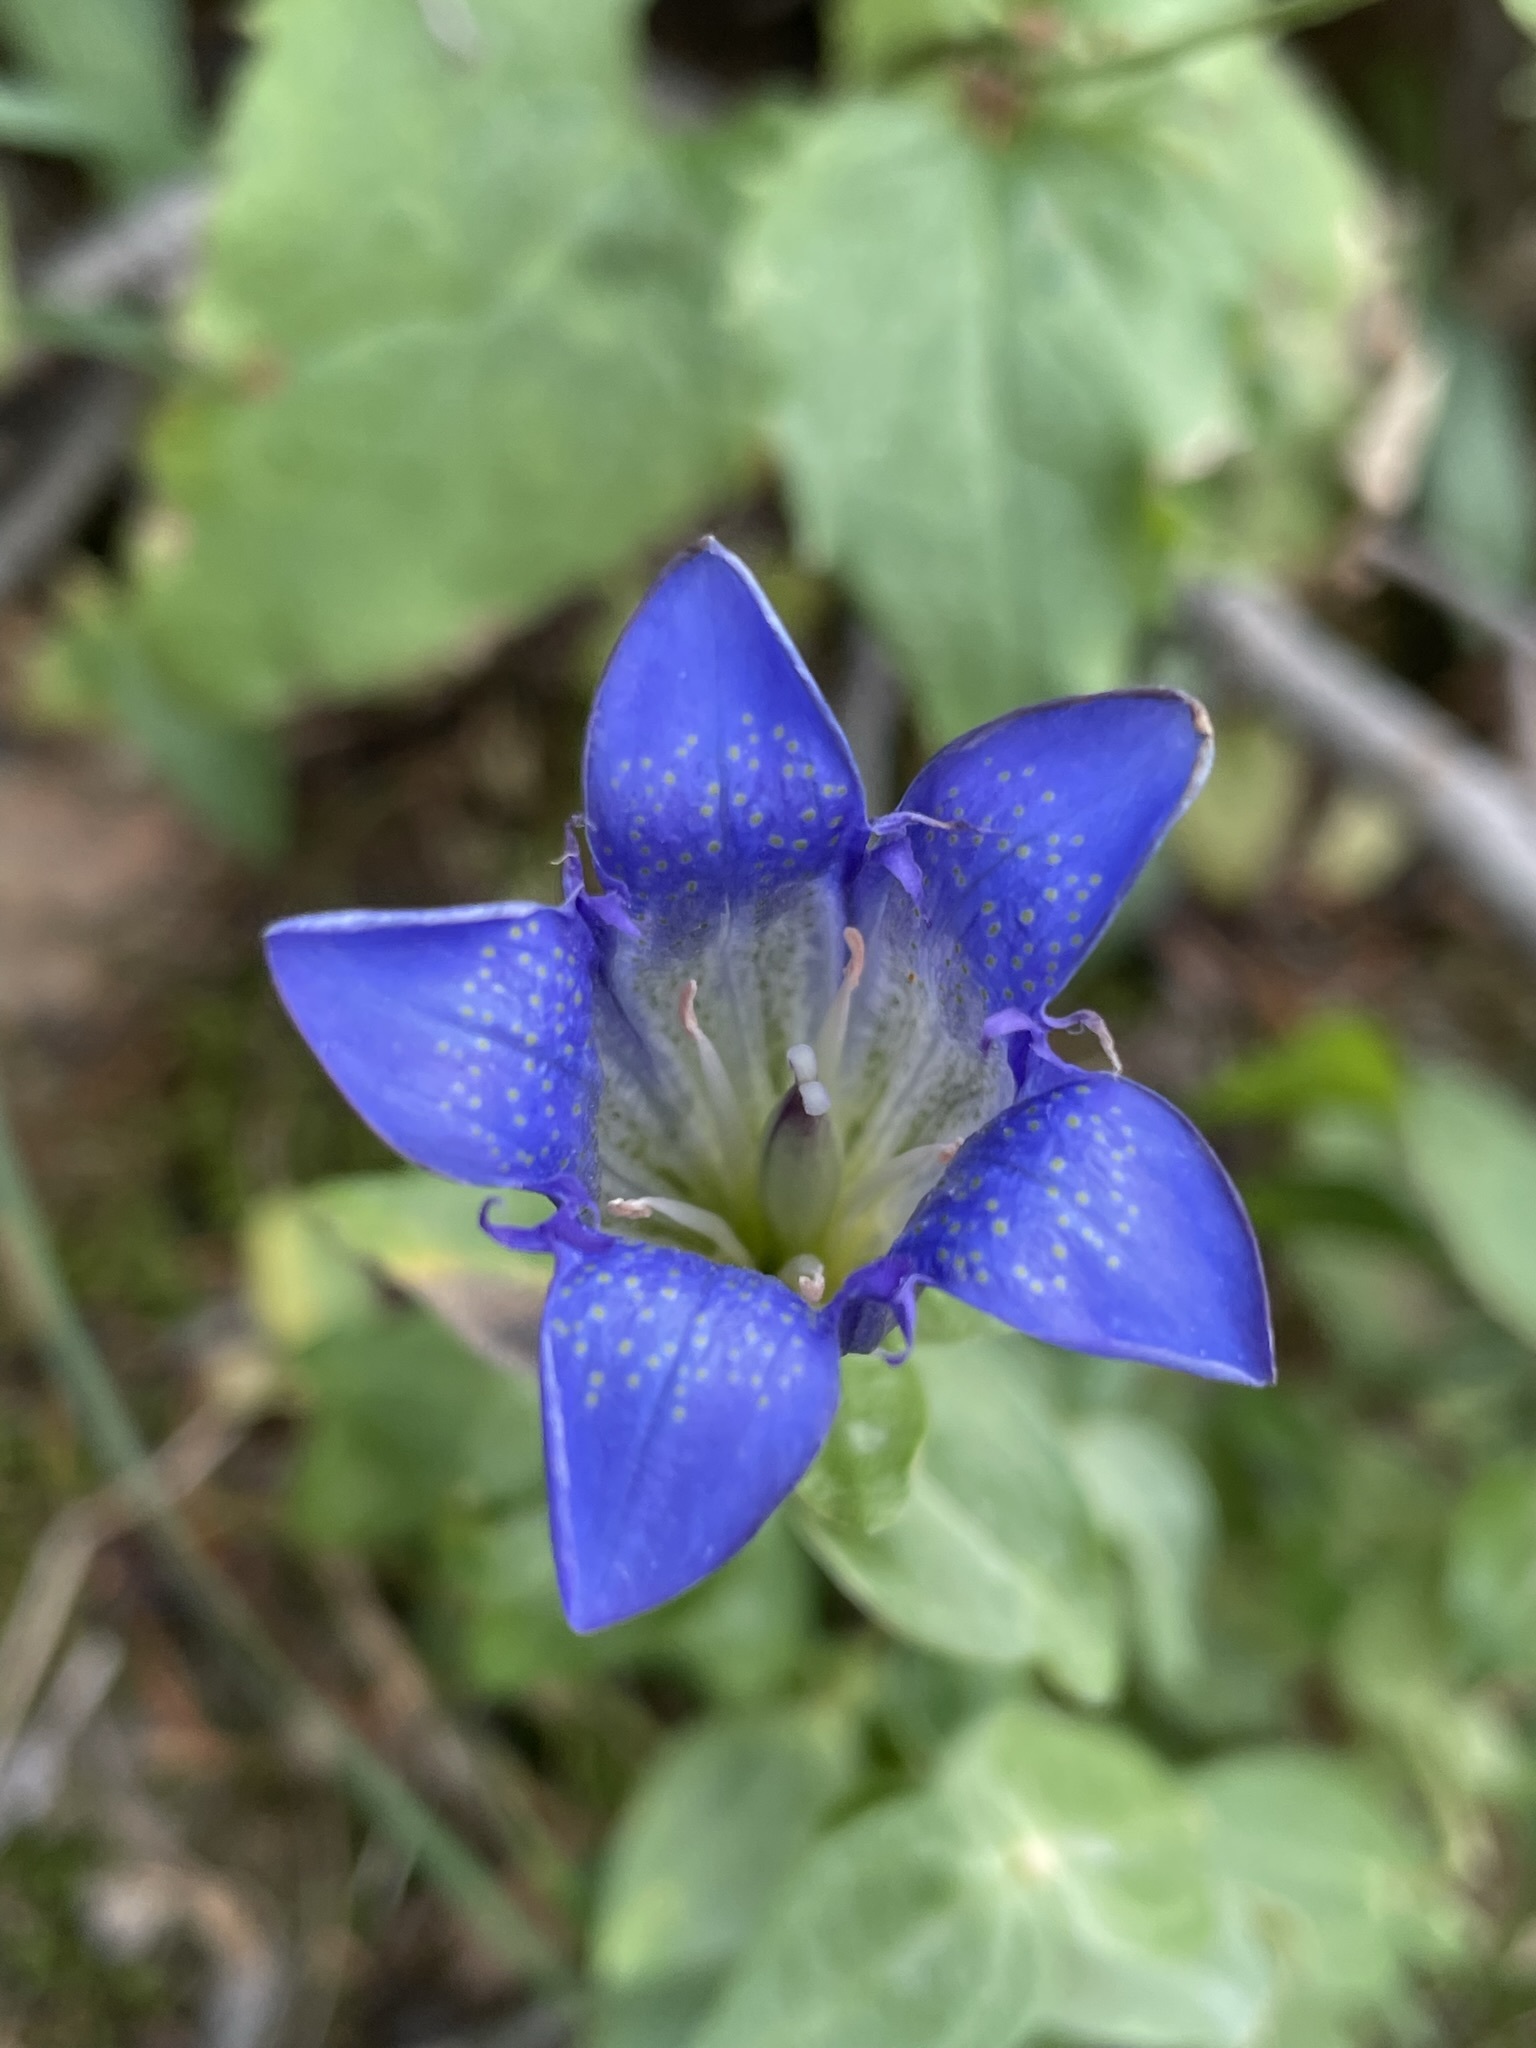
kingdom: Plantae
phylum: Tracheophyta
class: Magnoliopsida
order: Gentianales
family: Gentianaceae
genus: Gentiana
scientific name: Gentiana calycosa
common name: Rainier pleated gentian
